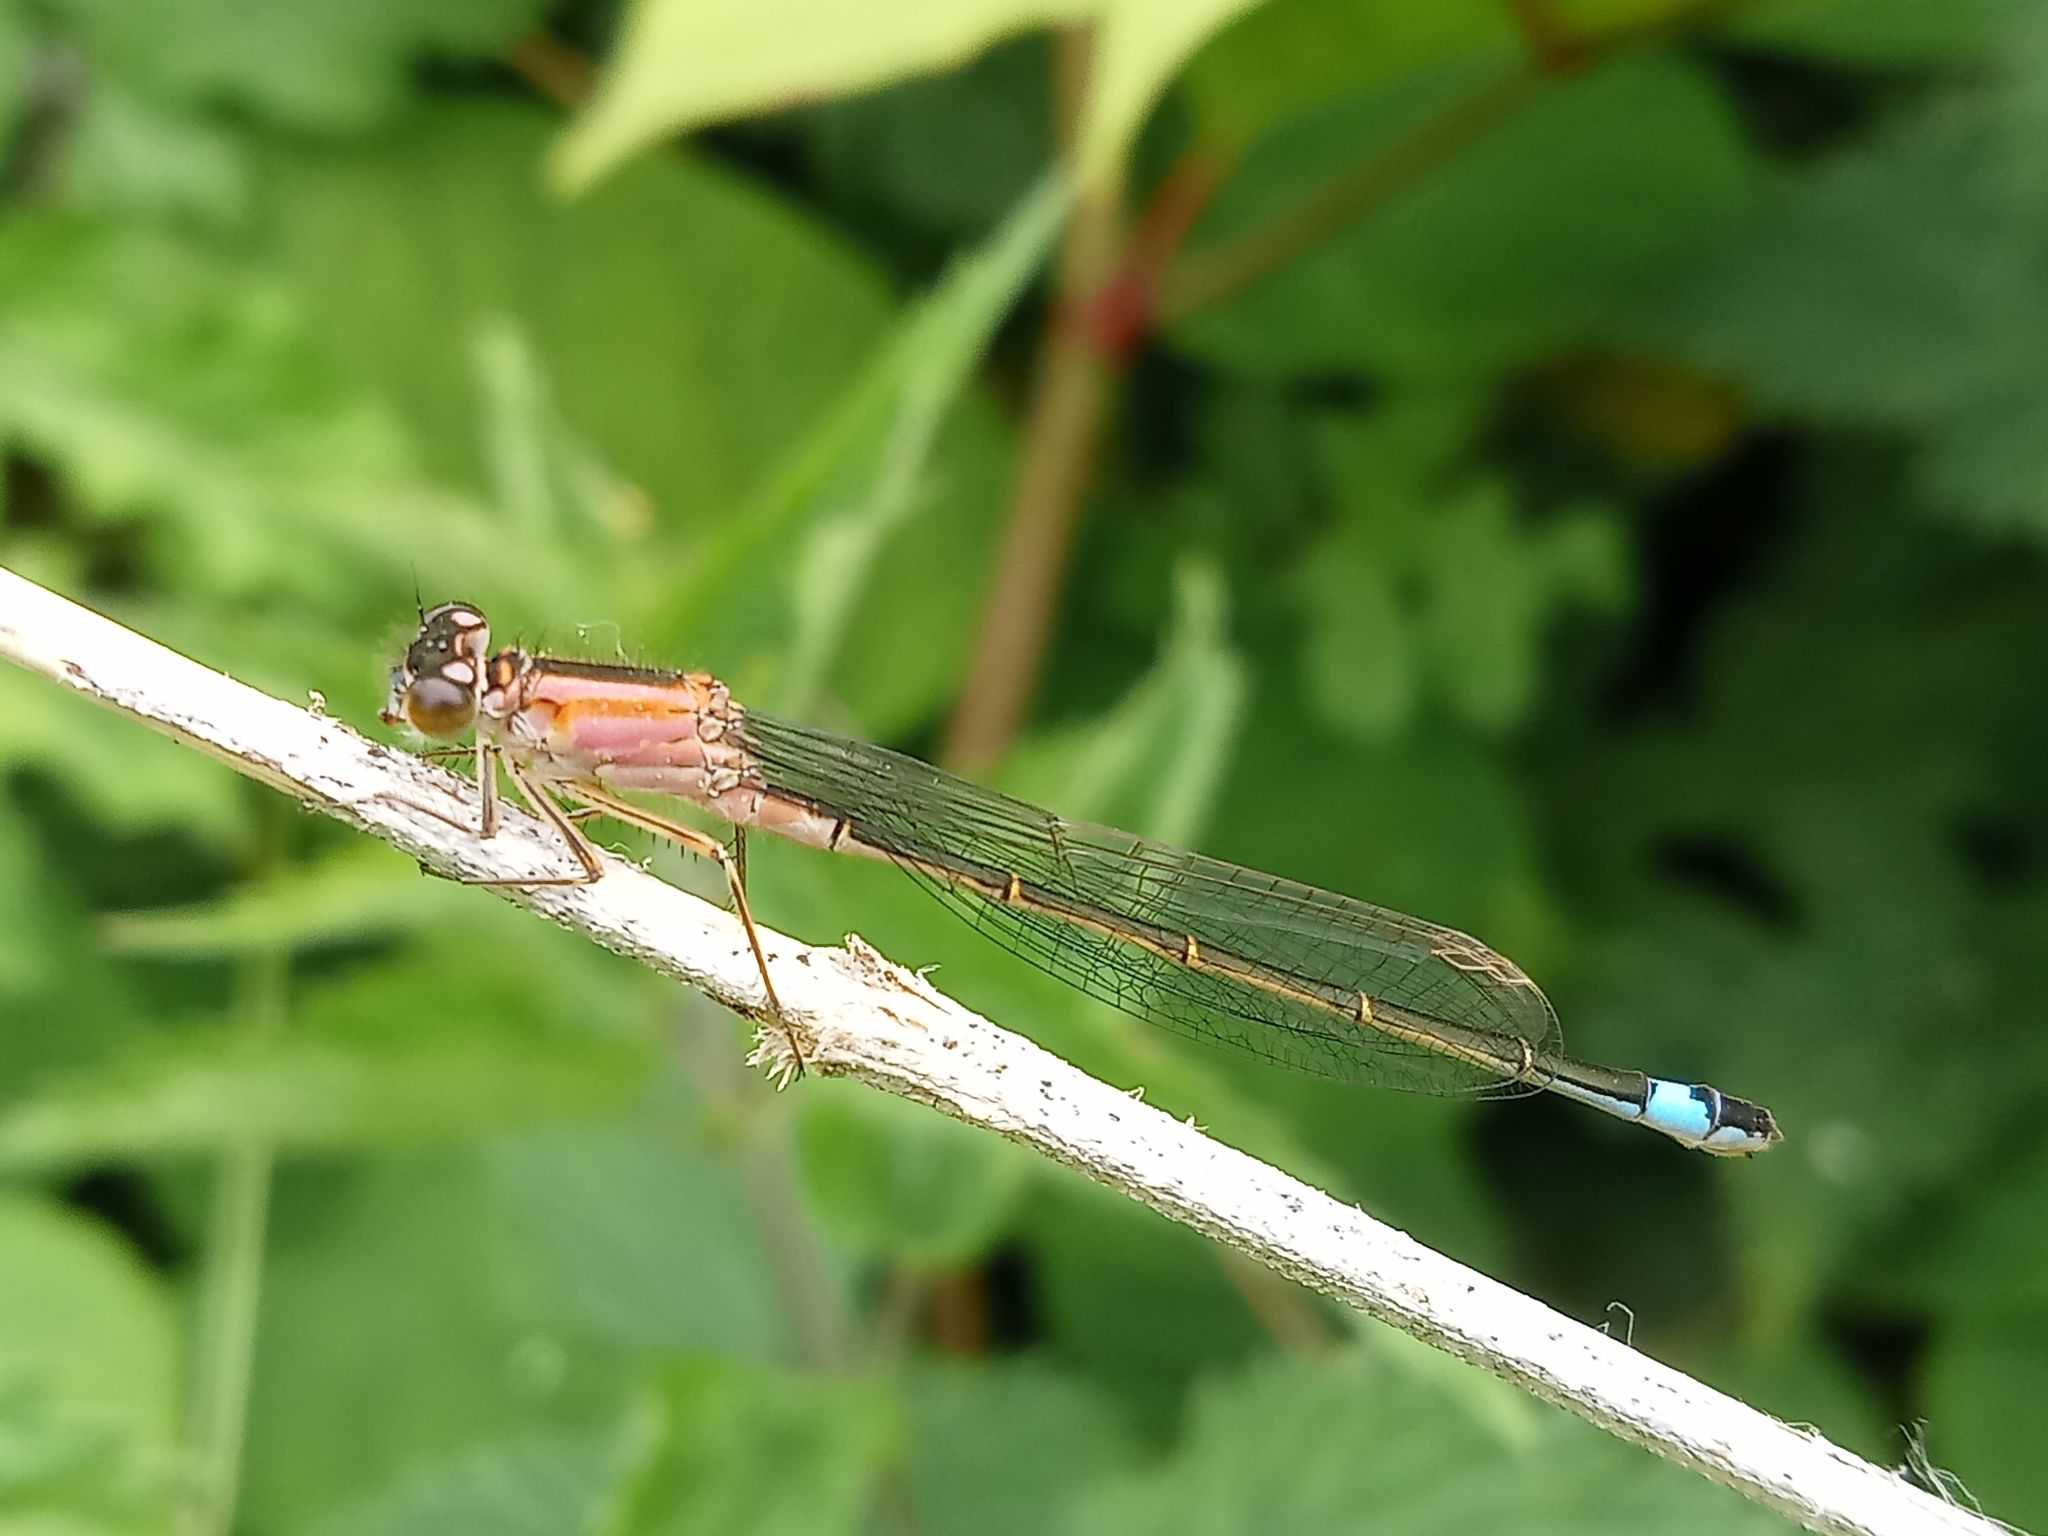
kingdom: Animalia
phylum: Arthropoda
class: Insecta
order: Odonata
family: Coenagrionidae
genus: Ischnura
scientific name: Ischnura elegans
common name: Blue-tailed damselfly
